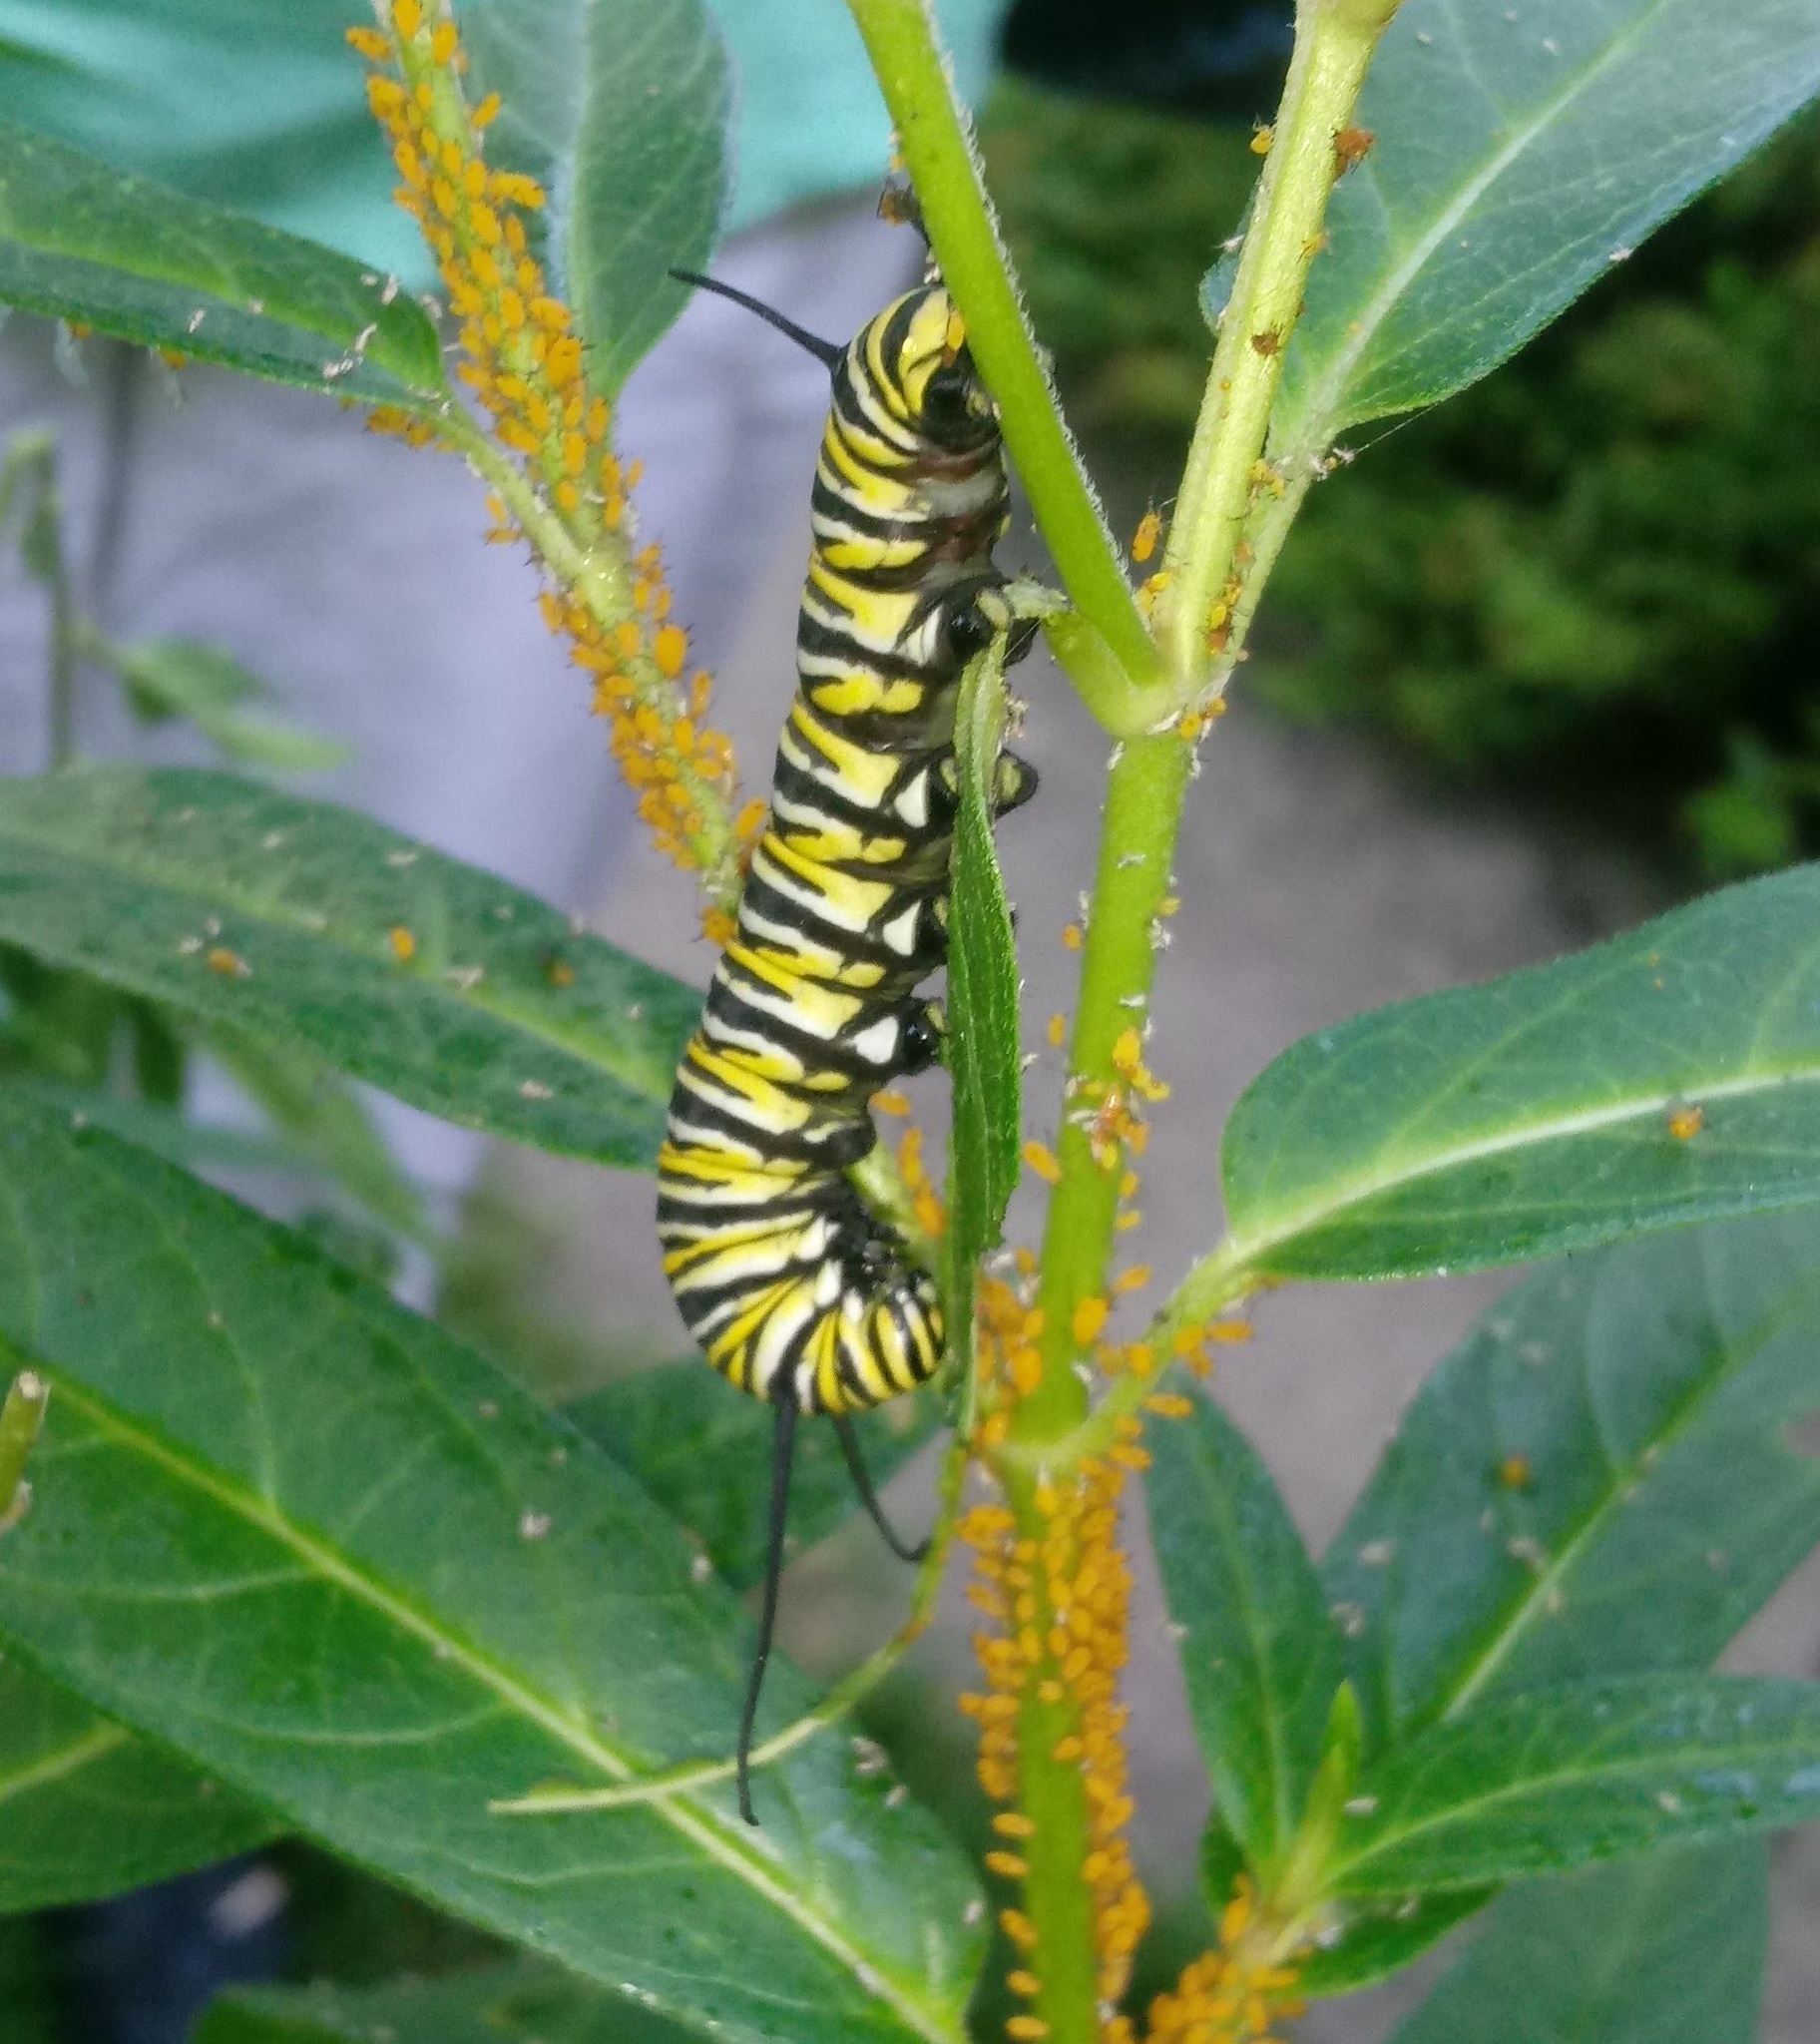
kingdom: Animalia
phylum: Arthropoda
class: Insecta
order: Lepidoptera
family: Nymphalidae
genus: Danaus
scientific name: Danaus plexippus
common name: Monarch
